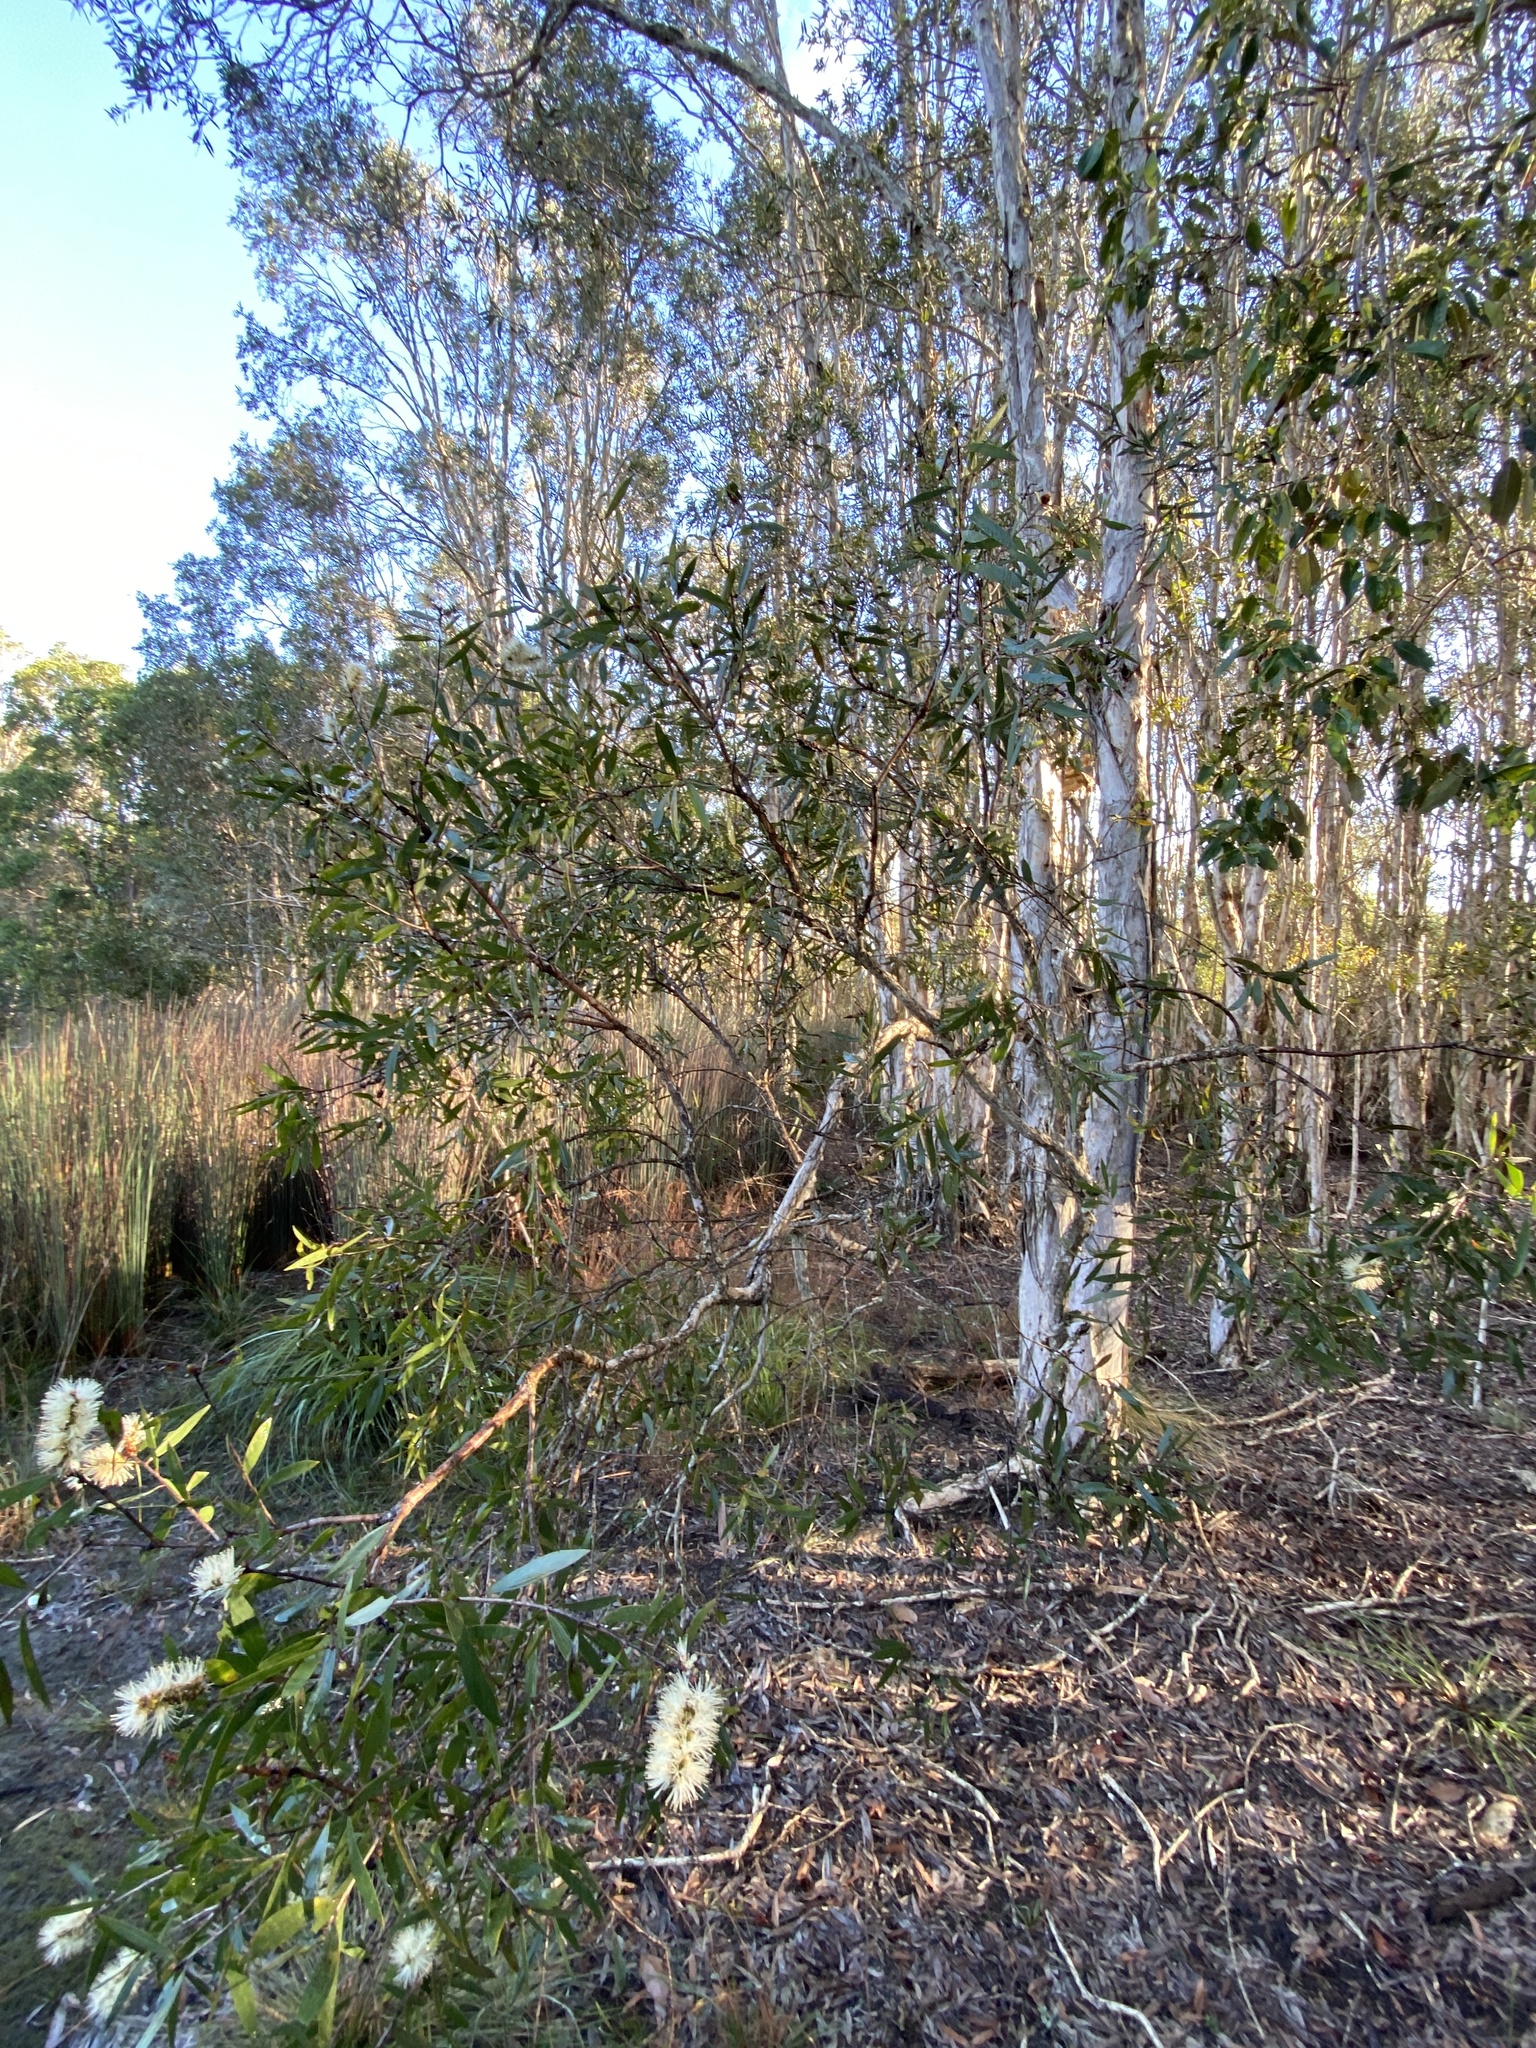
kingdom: Plantae
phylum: Tracheophyta
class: Magnoliopsida
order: Myrtales
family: Myrtaceae
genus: Melaleuca
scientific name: Melaleuca quinquenervia
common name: Punktree
